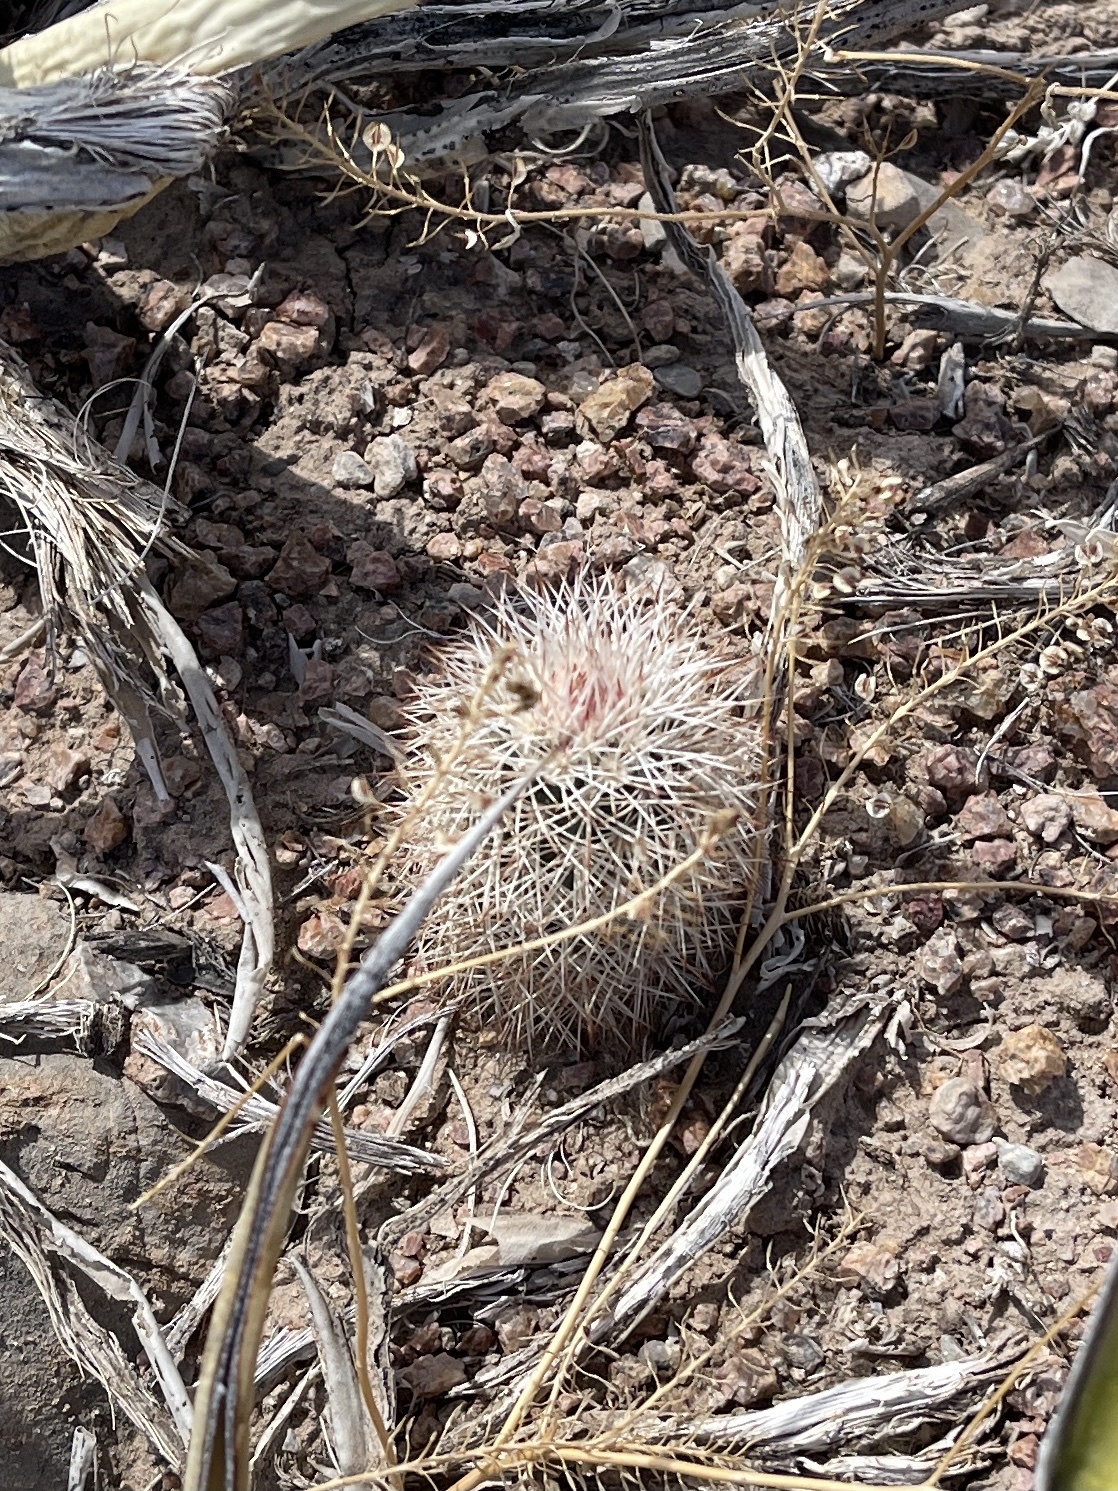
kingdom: Plantae
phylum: Tracheophyta
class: Magnoliopsida
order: Caryophyllales
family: Cactaceae
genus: Echinocereus
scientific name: Echinocereus dasyacanthus
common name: Spiny hedgehog cactus
